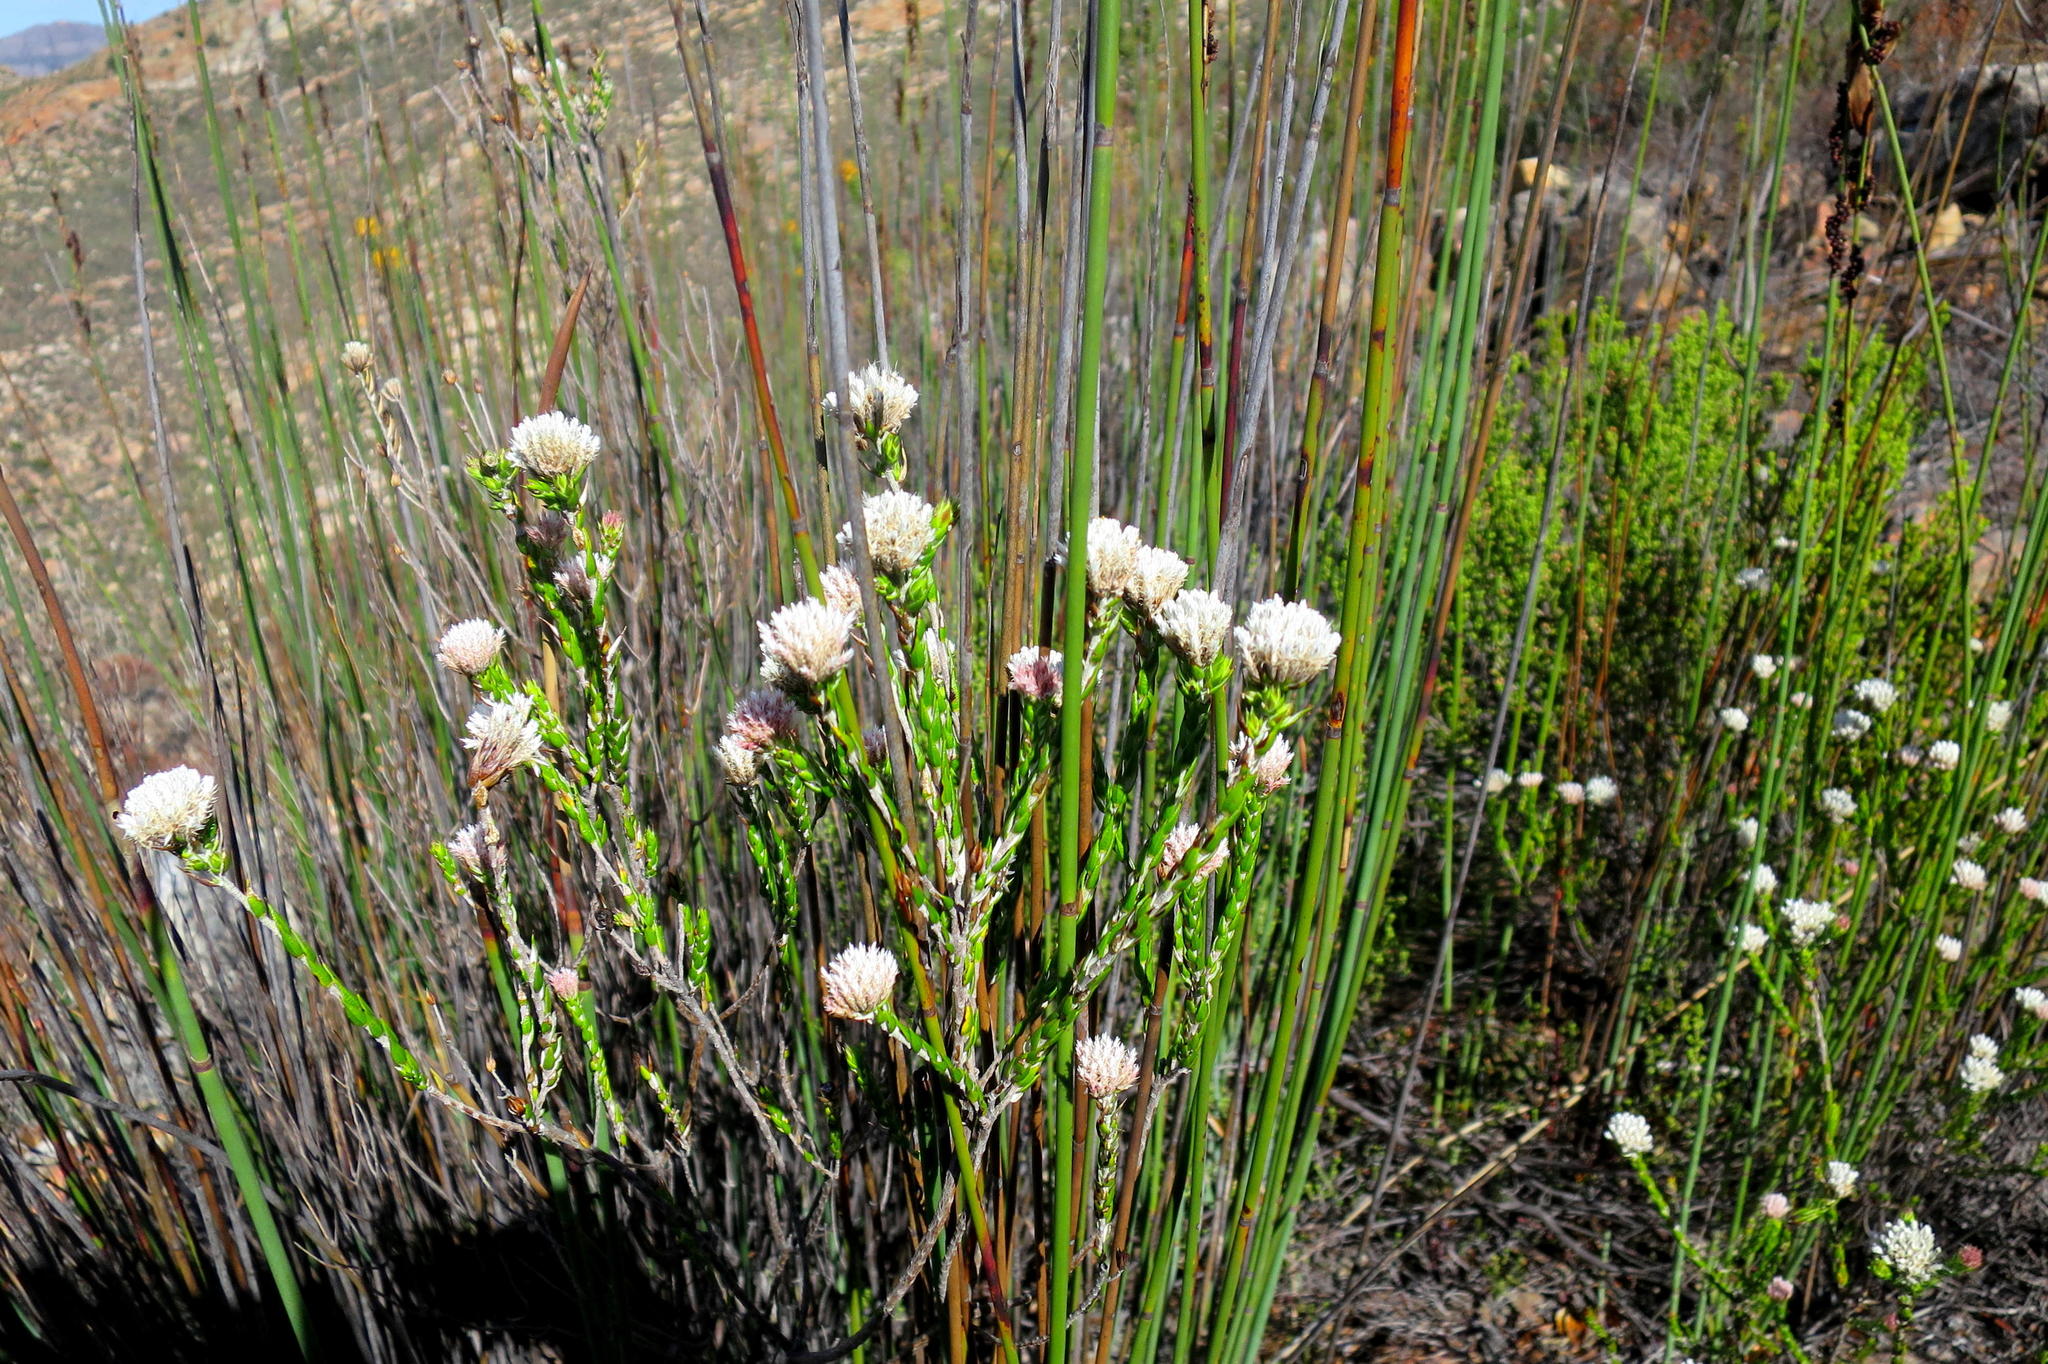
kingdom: Plantae
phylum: Tracheophyta
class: Magnoliopsida
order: Asterales
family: Asteraceae
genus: Metalasia
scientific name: Metalasia pulcherrima
